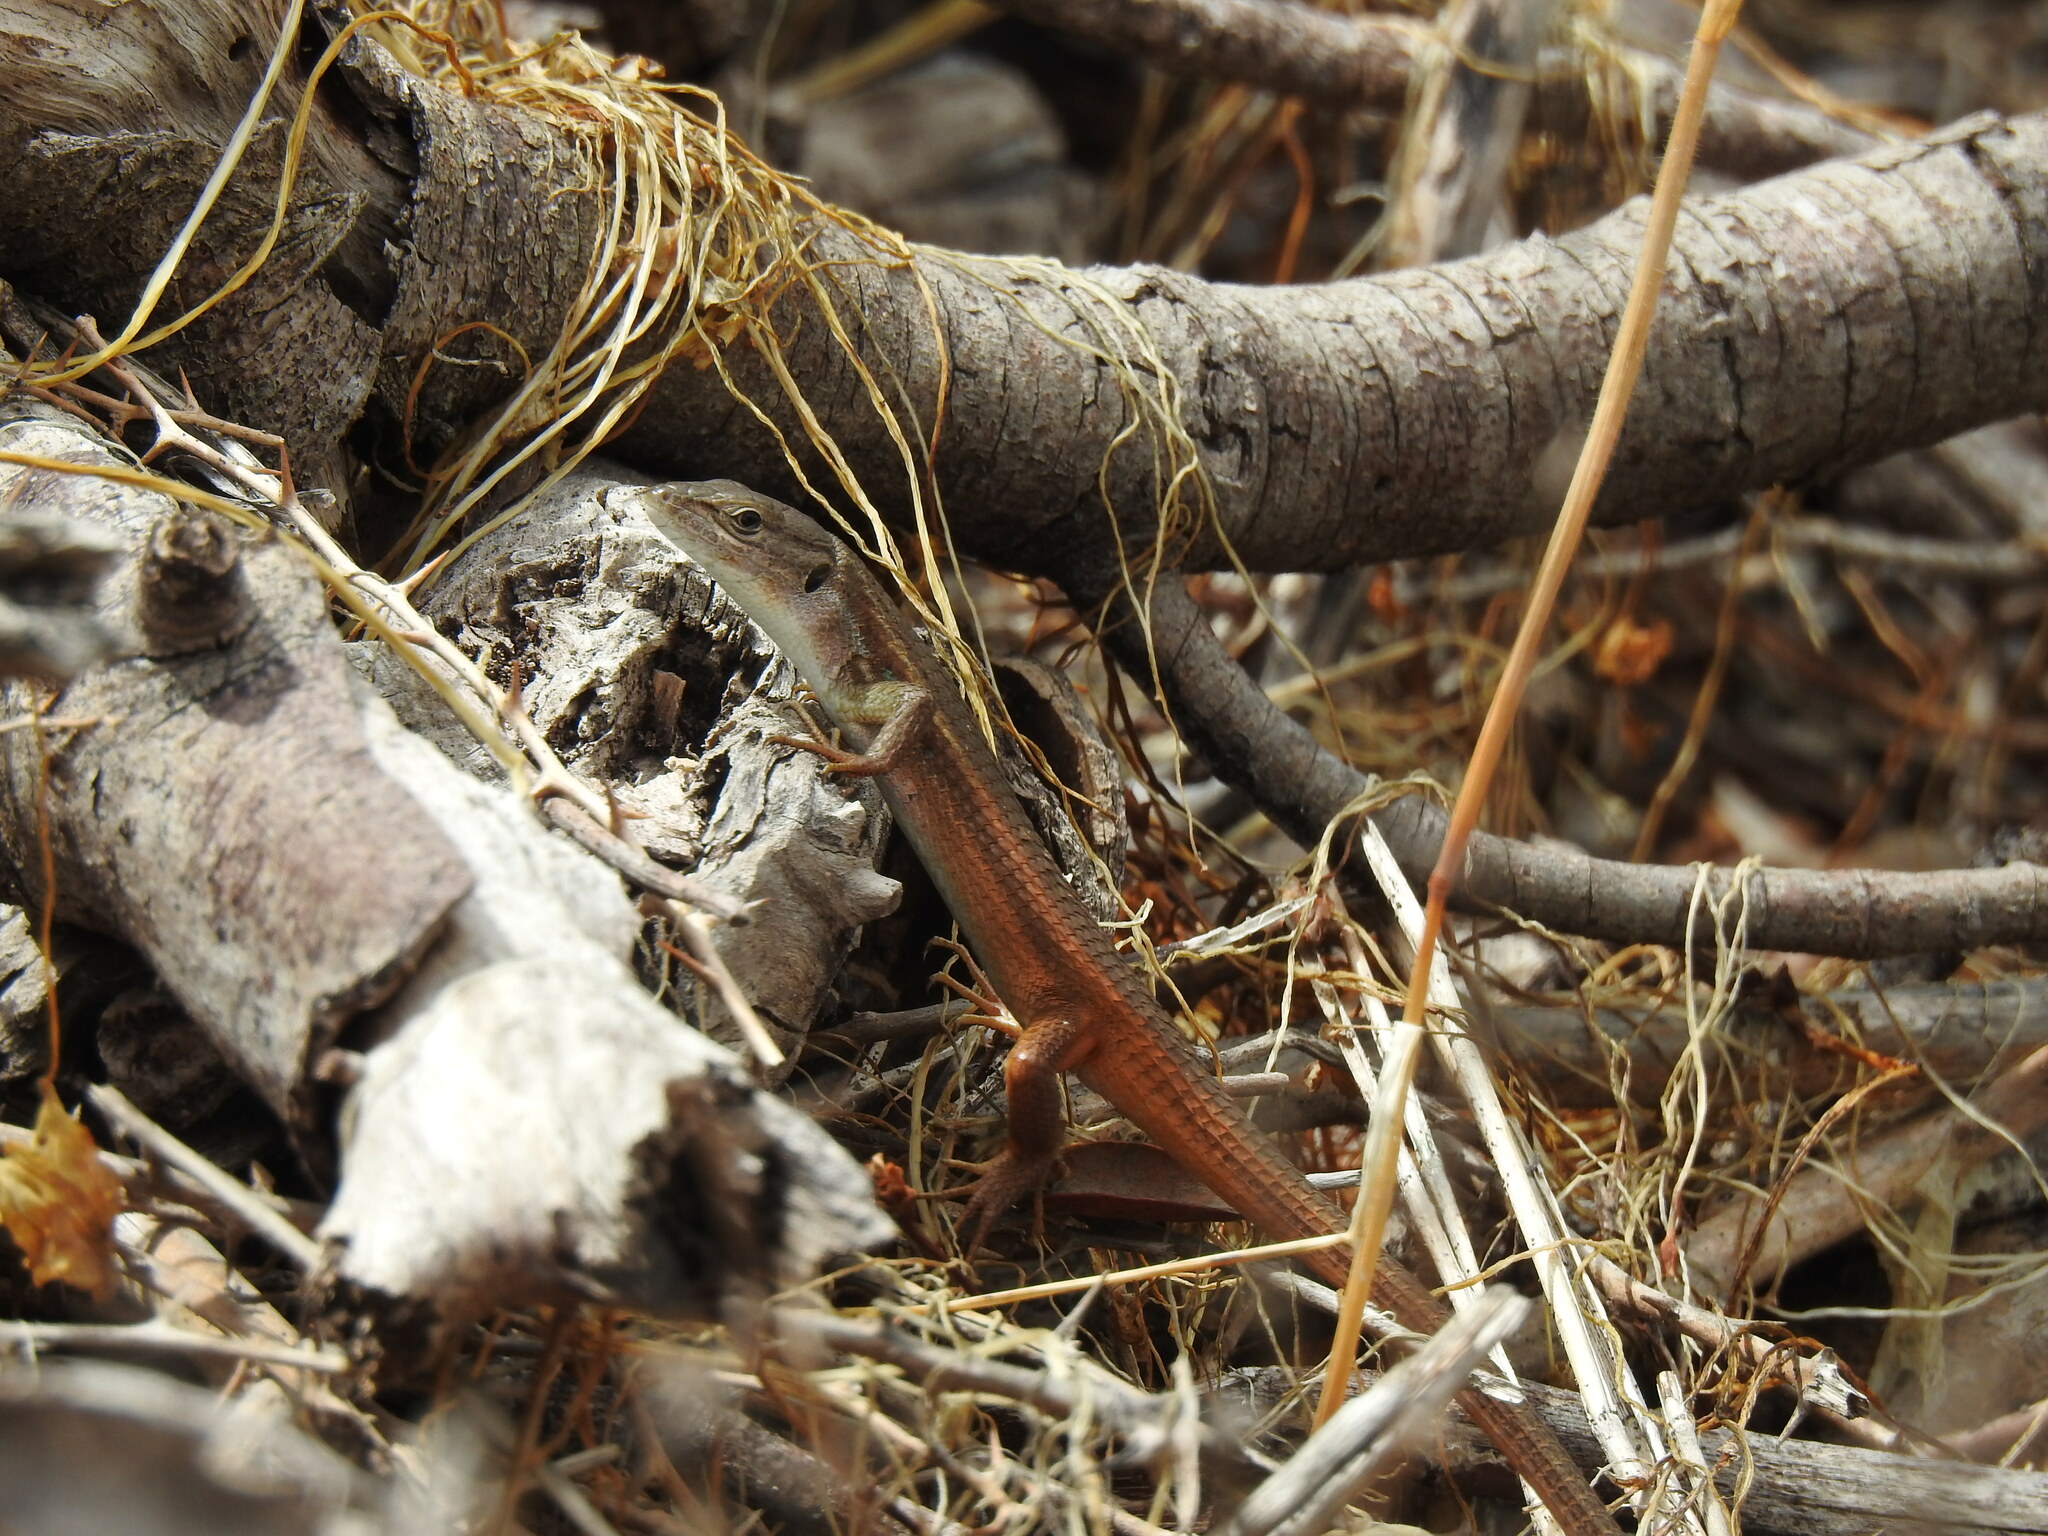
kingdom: Animalia
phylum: Chordata
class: Squamata
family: Lacertidae
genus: Psammodromus
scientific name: Psammodromus algirus
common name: Algerian psammodromus
